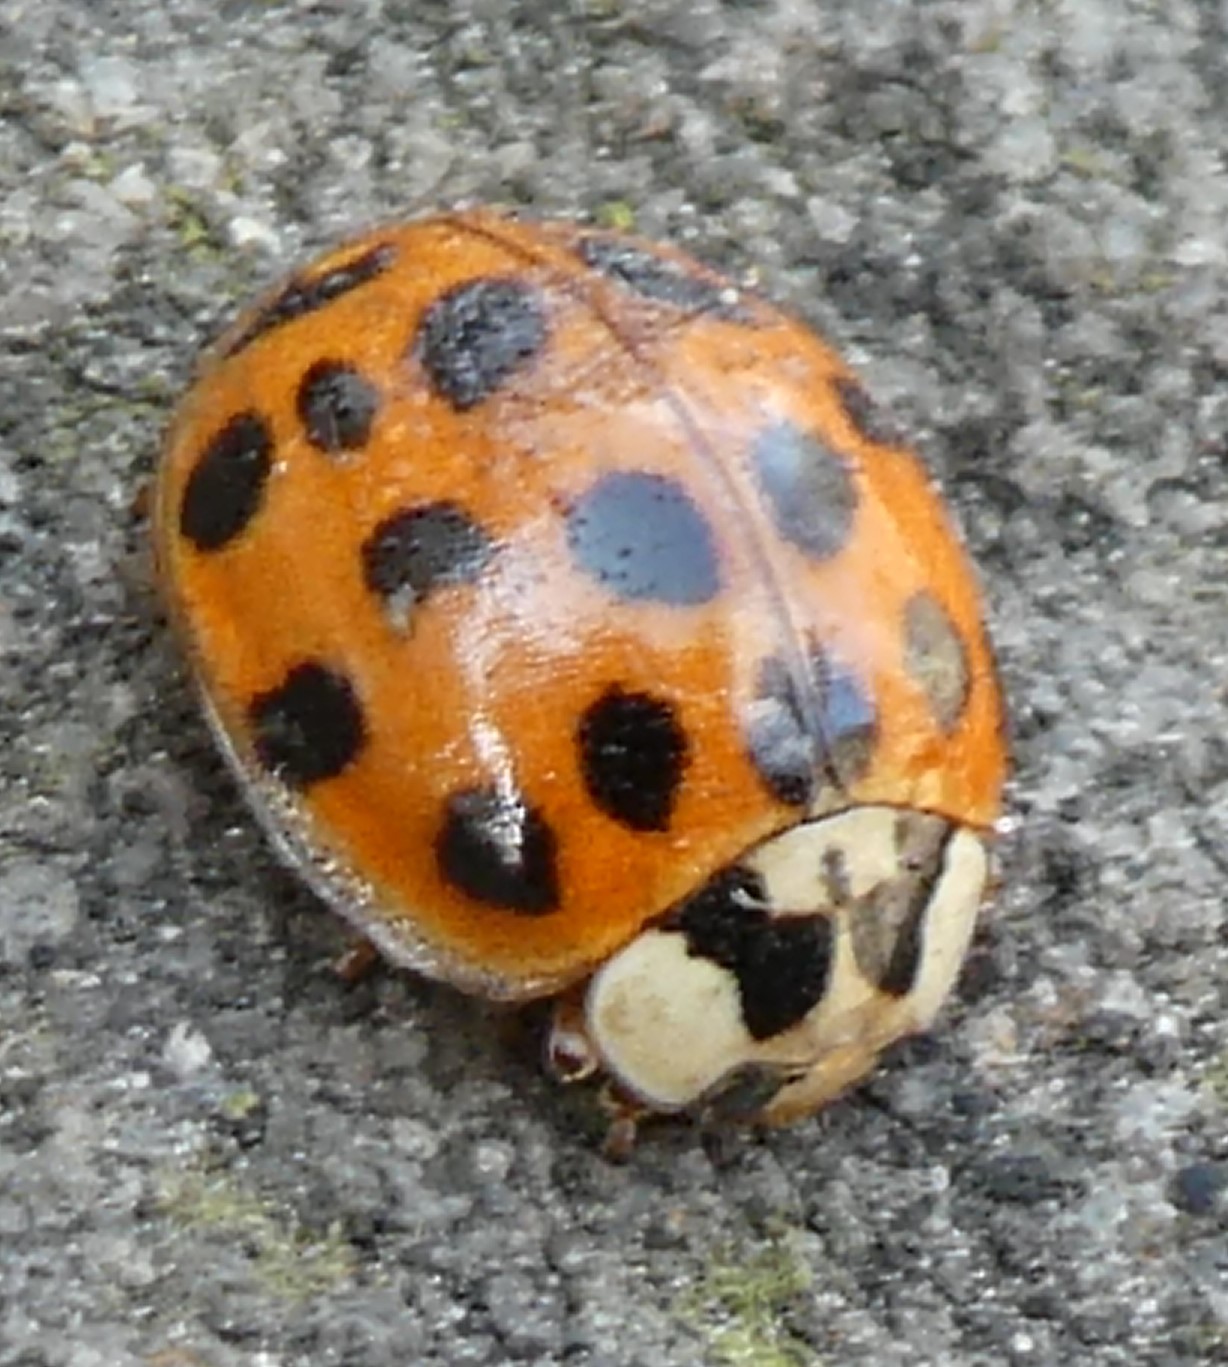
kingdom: Animalia
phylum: Arthropoda
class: Insecta
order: Coleoptera
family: Coccinellidae
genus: Harmonia
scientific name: Harmonia axyridis
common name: Harlequin ladybird
